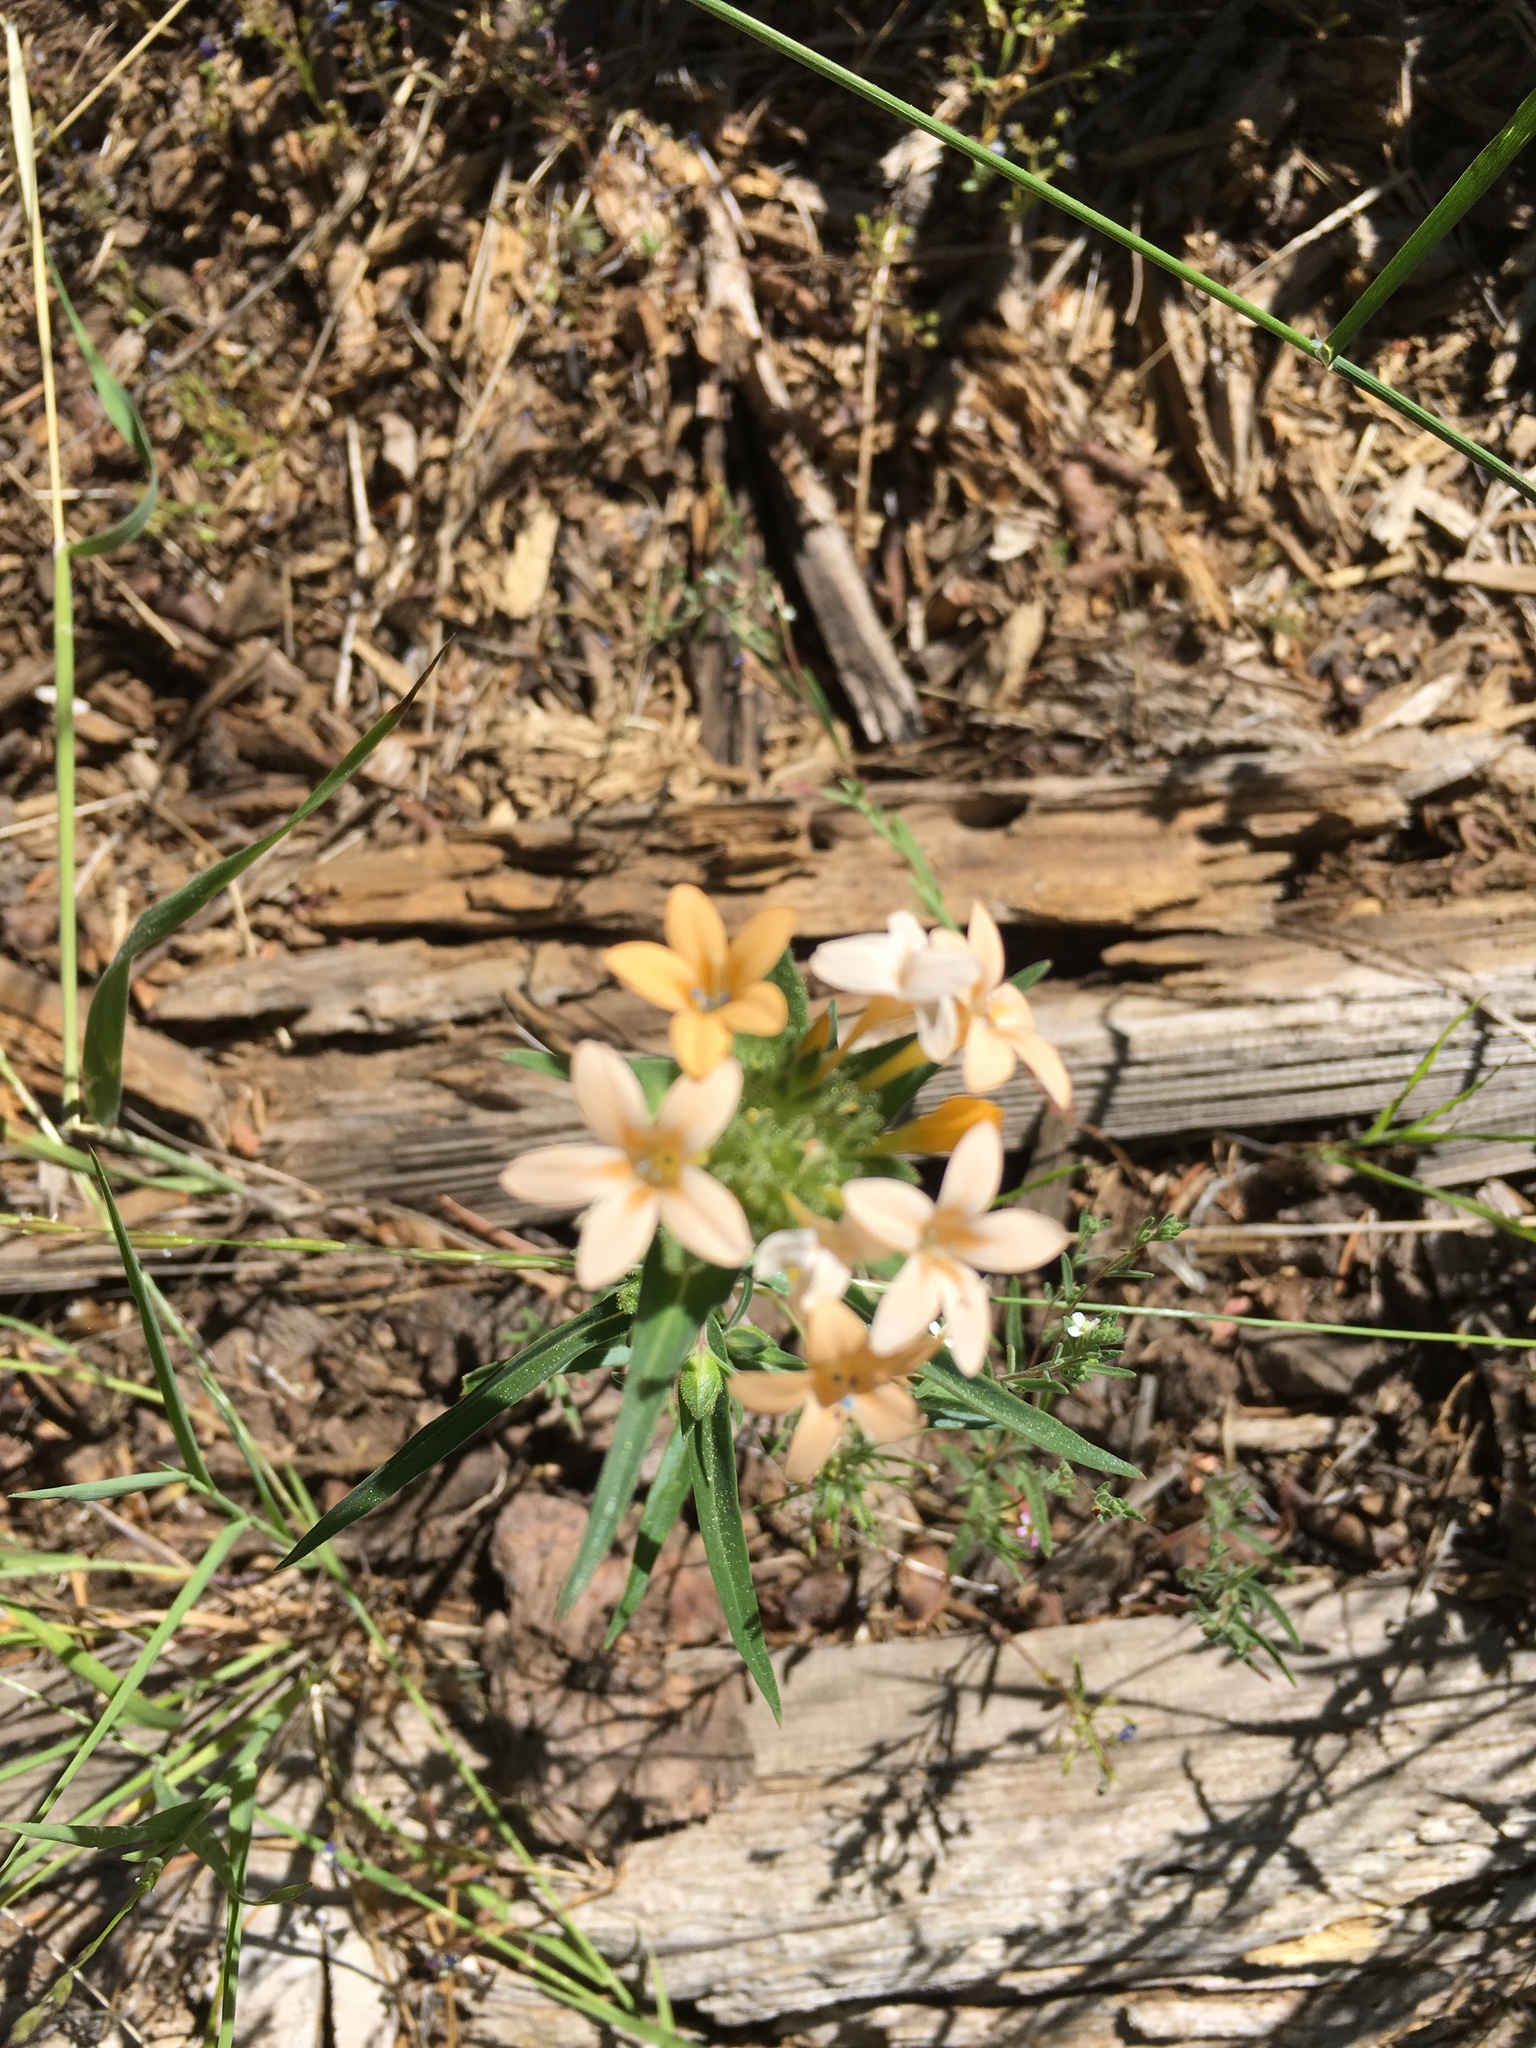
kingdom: Plantae
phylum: Tracheophyta
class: Magnoliopsida
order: Ericales
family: Polemoniaceae
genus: Collomia
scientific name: Collomia grandiflora
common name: California strawflower
